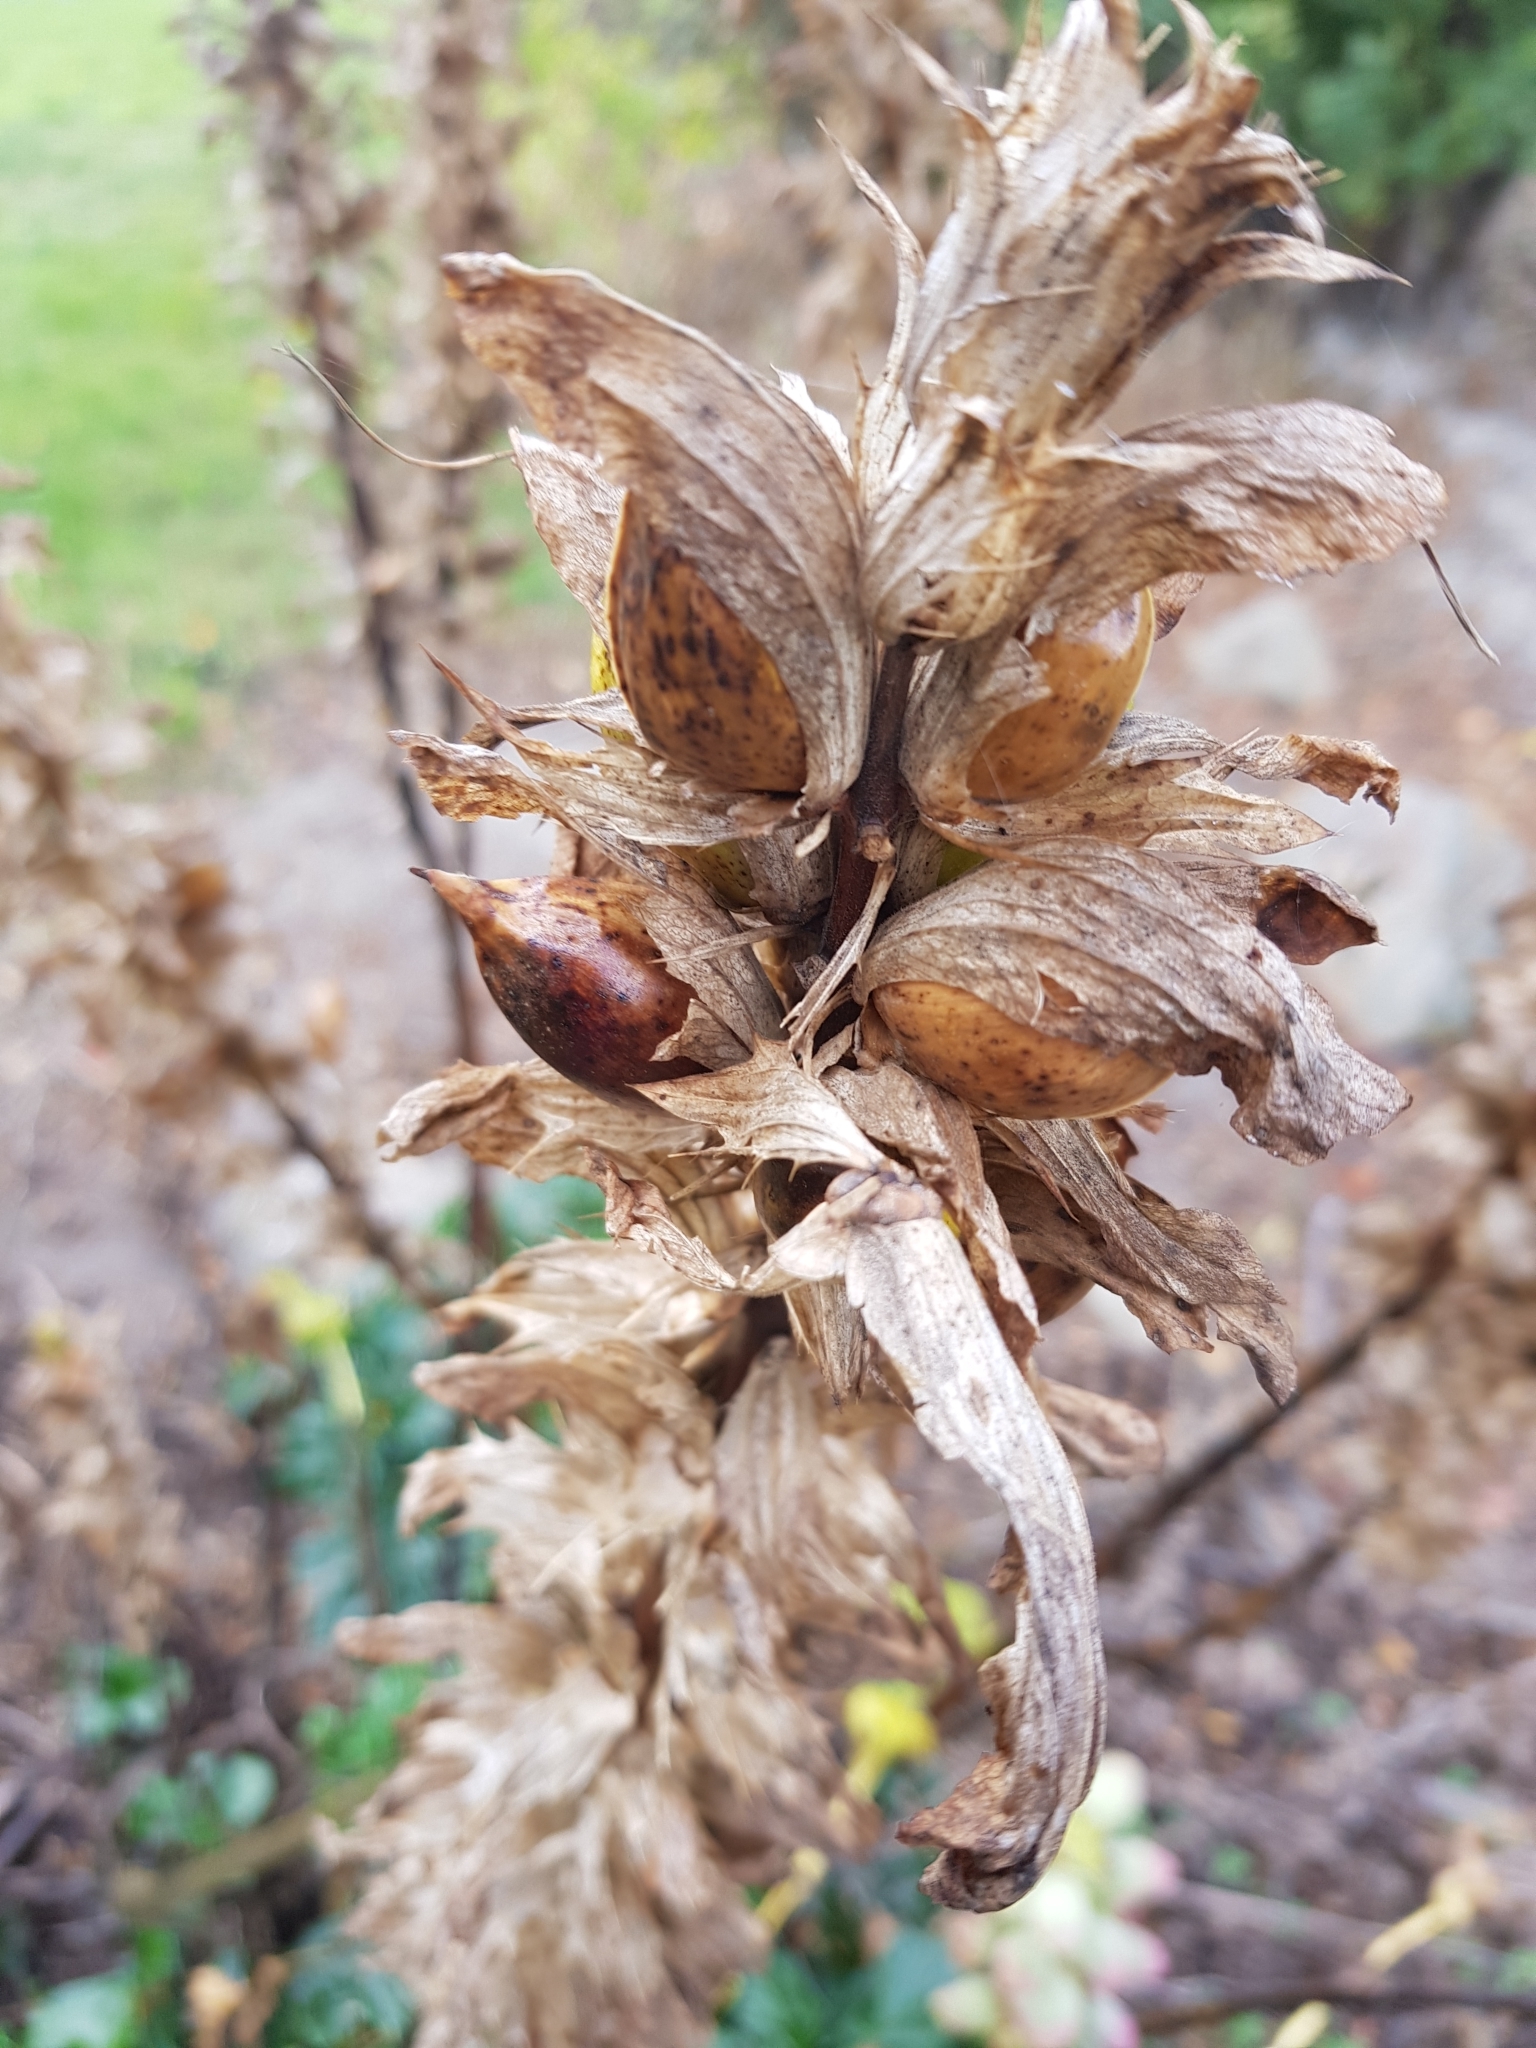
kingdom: Plantae
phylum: Tracheophyta
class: Magnoliopsida
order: Lamiales
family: Acanthaceae
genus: Acanthus
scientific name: Acanthus mollis
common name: Bear's-breech
